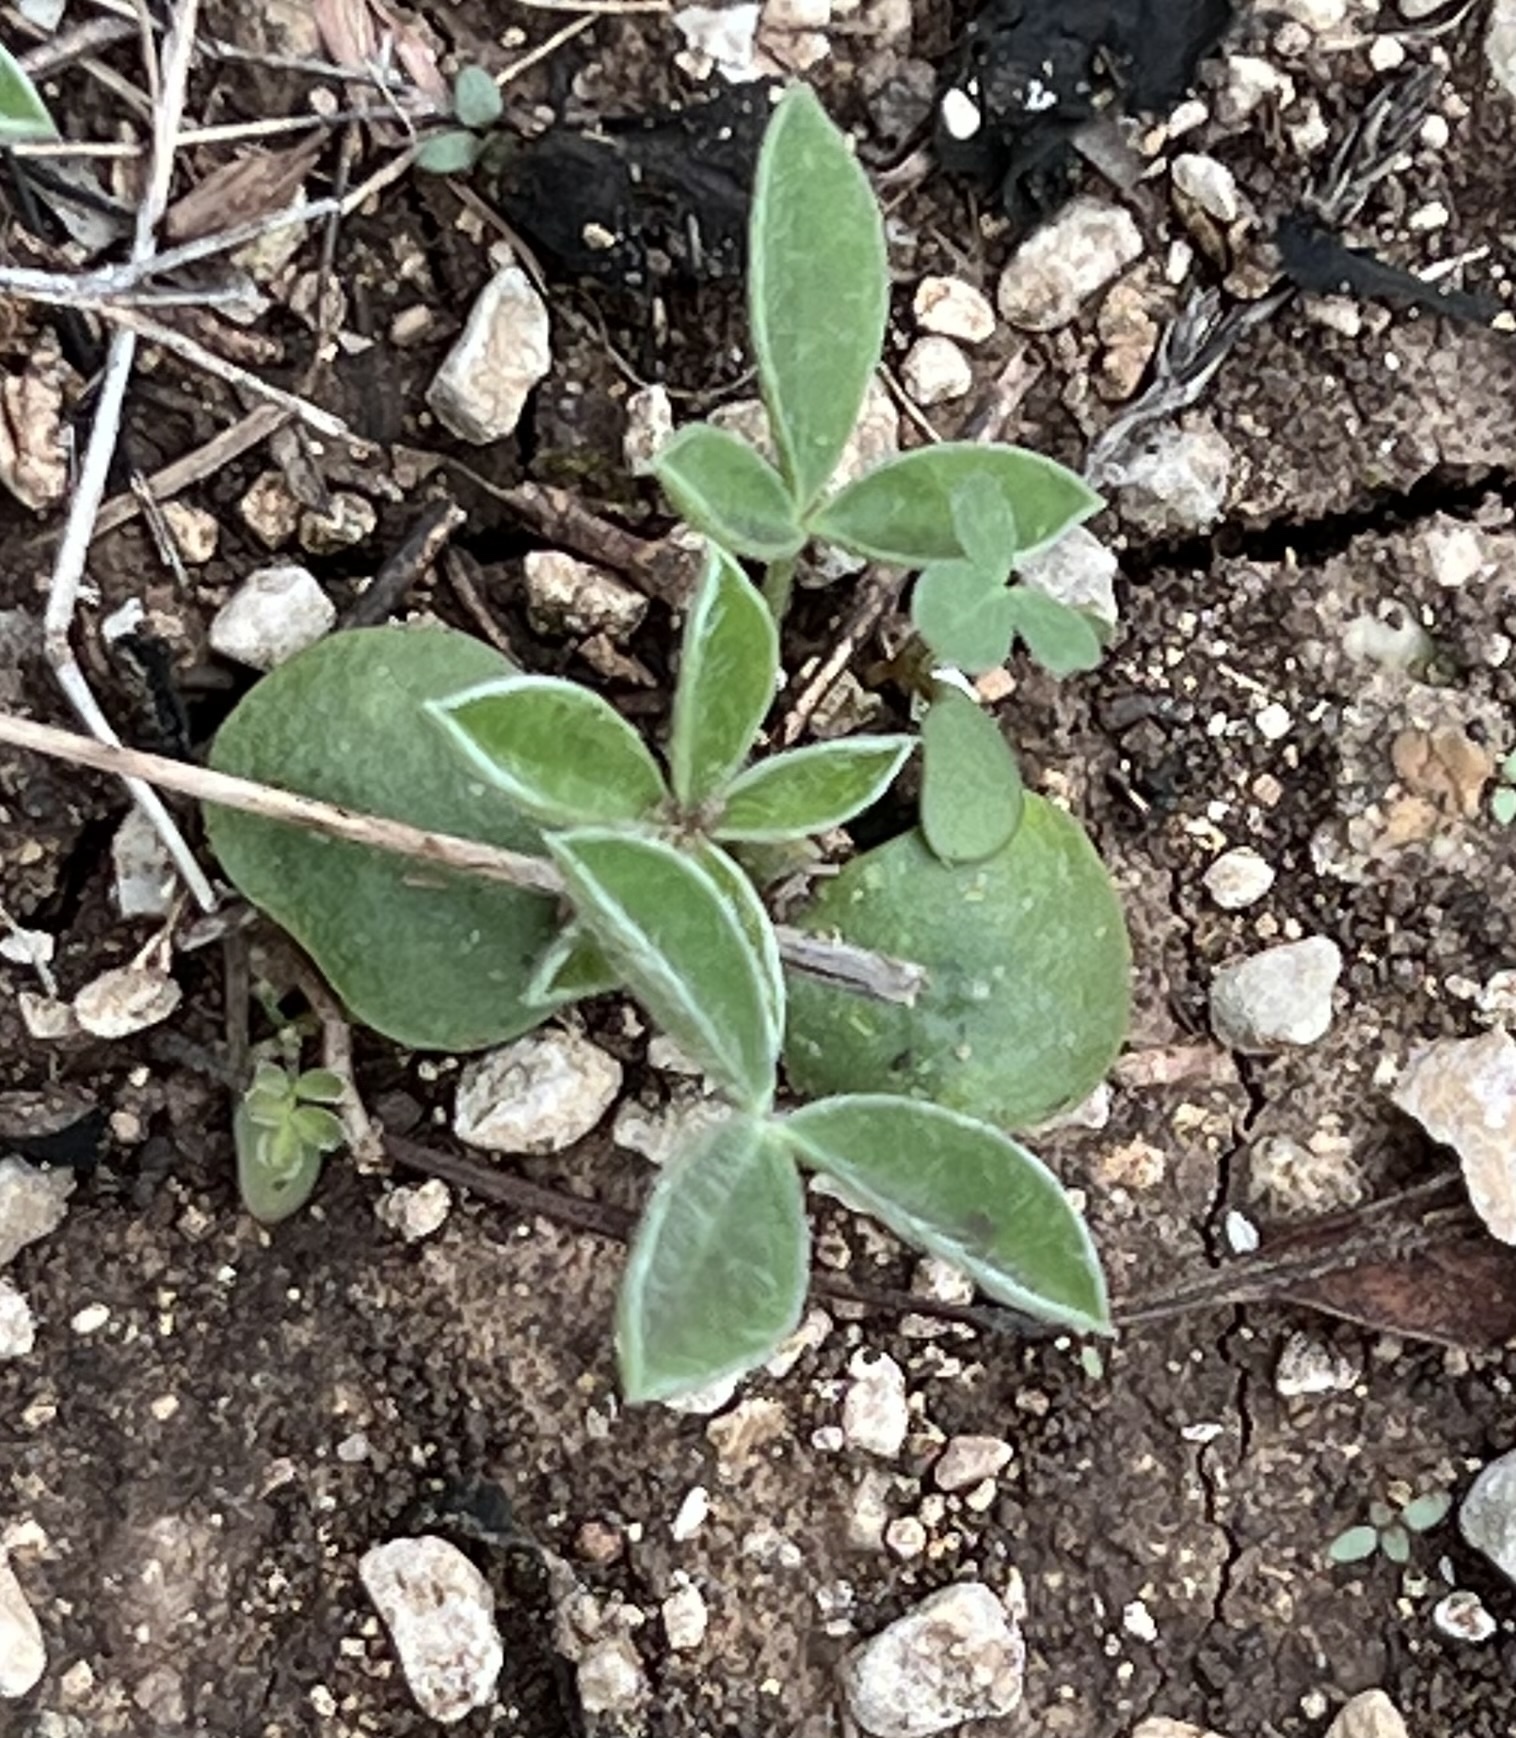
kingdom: Plantae
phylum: Tracheophyta
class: Magnoliopsida
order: Fabales
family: Fabaceae
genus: Lupinus
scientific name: Lupinus texensis
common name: Texas bluebonnet
